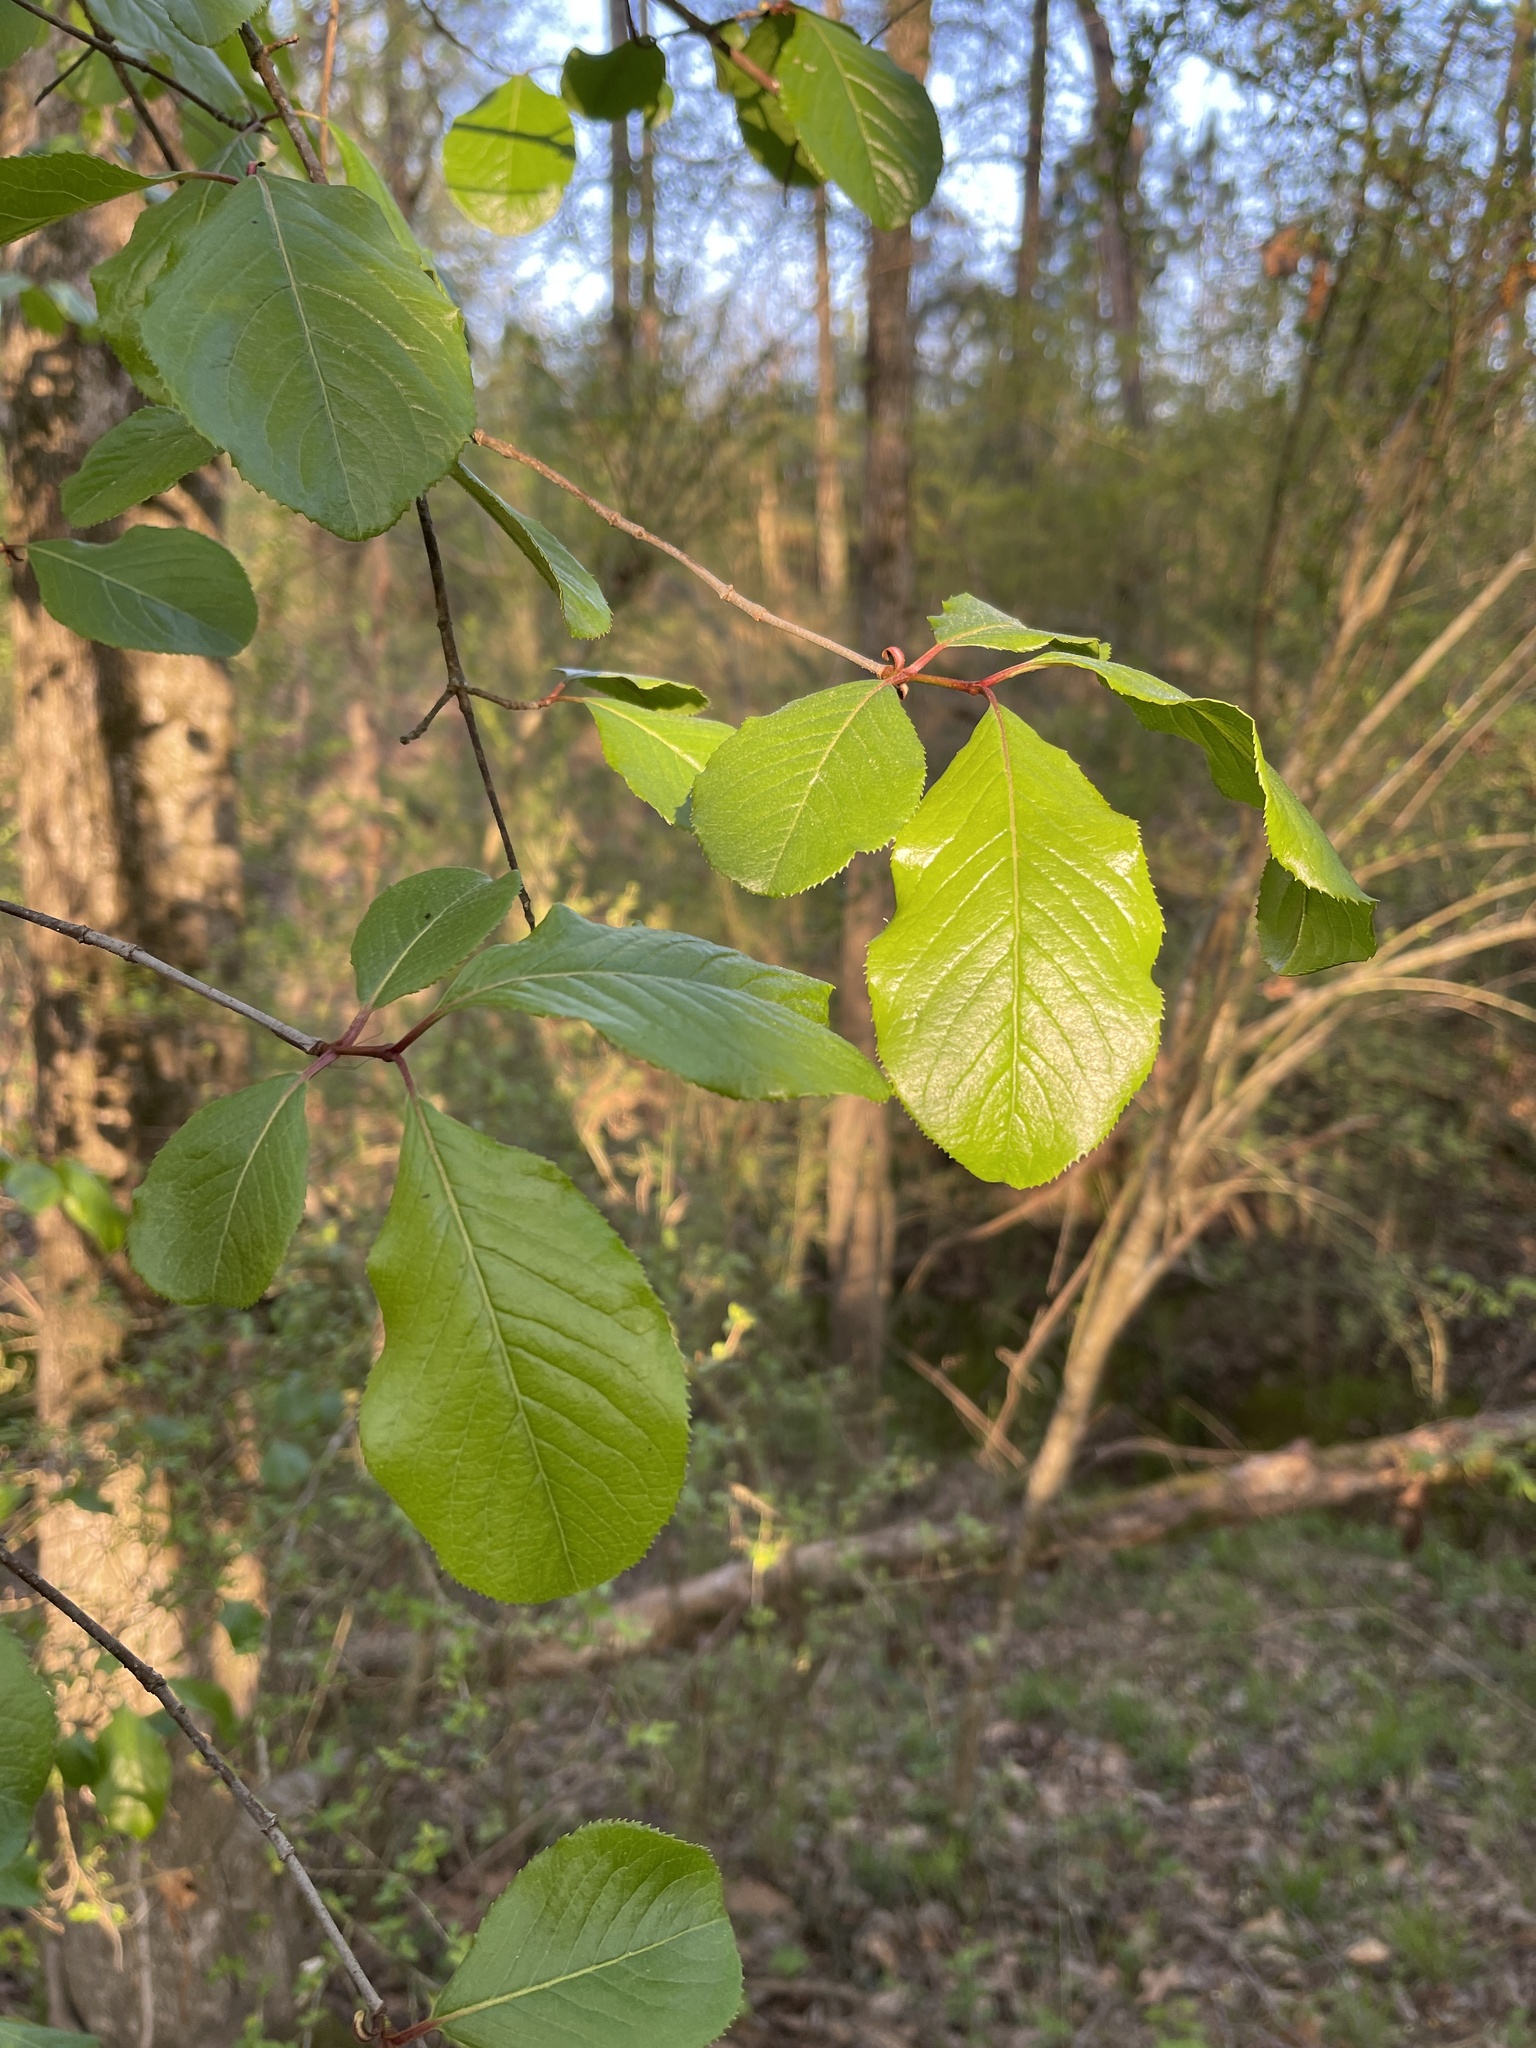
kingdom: Plantae
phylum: Tracheophyta
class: Magnoliopsida
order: Dipsacales
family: Viburnaceae
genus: Viburnum
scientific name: Viburnum rufidulum
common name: Blue haw
